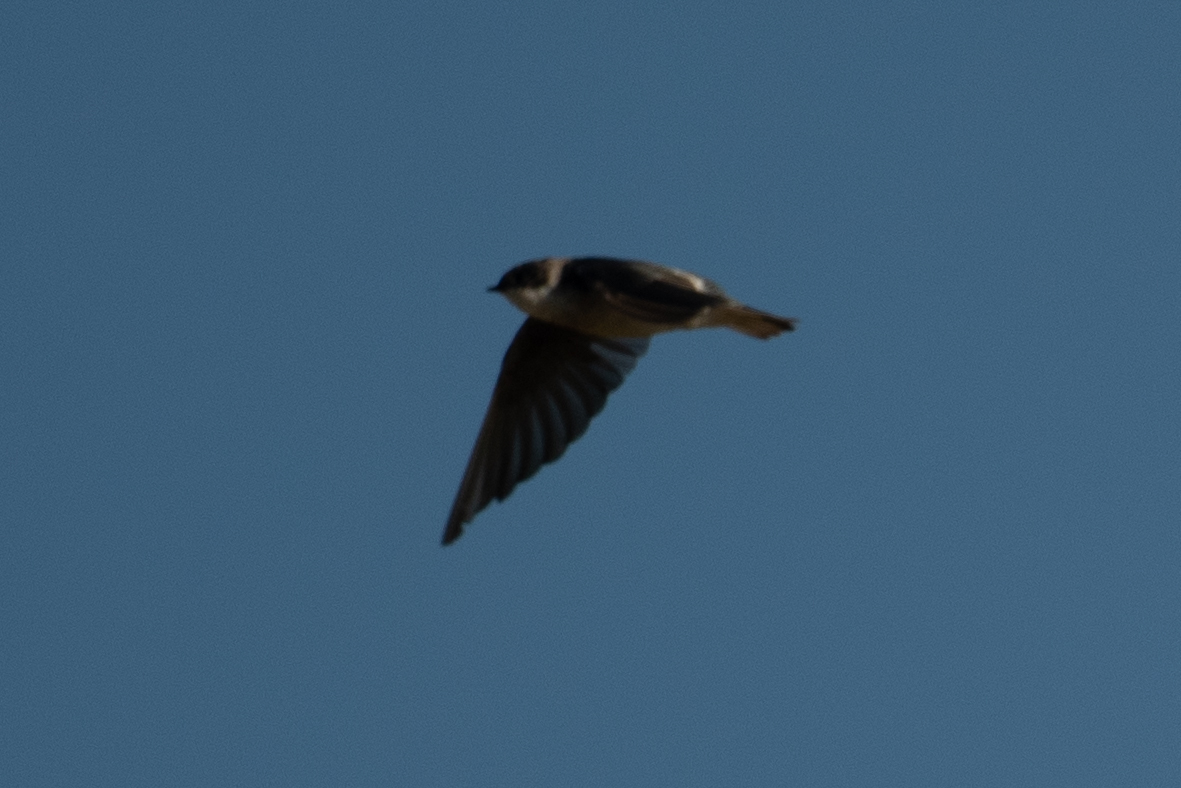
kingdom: Animalia
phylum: Chordata
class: Aves
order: Passeriformes
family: Hirundinidae
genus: Tachycineta
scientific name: Tachycineta bicolor
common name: Tree swallow
